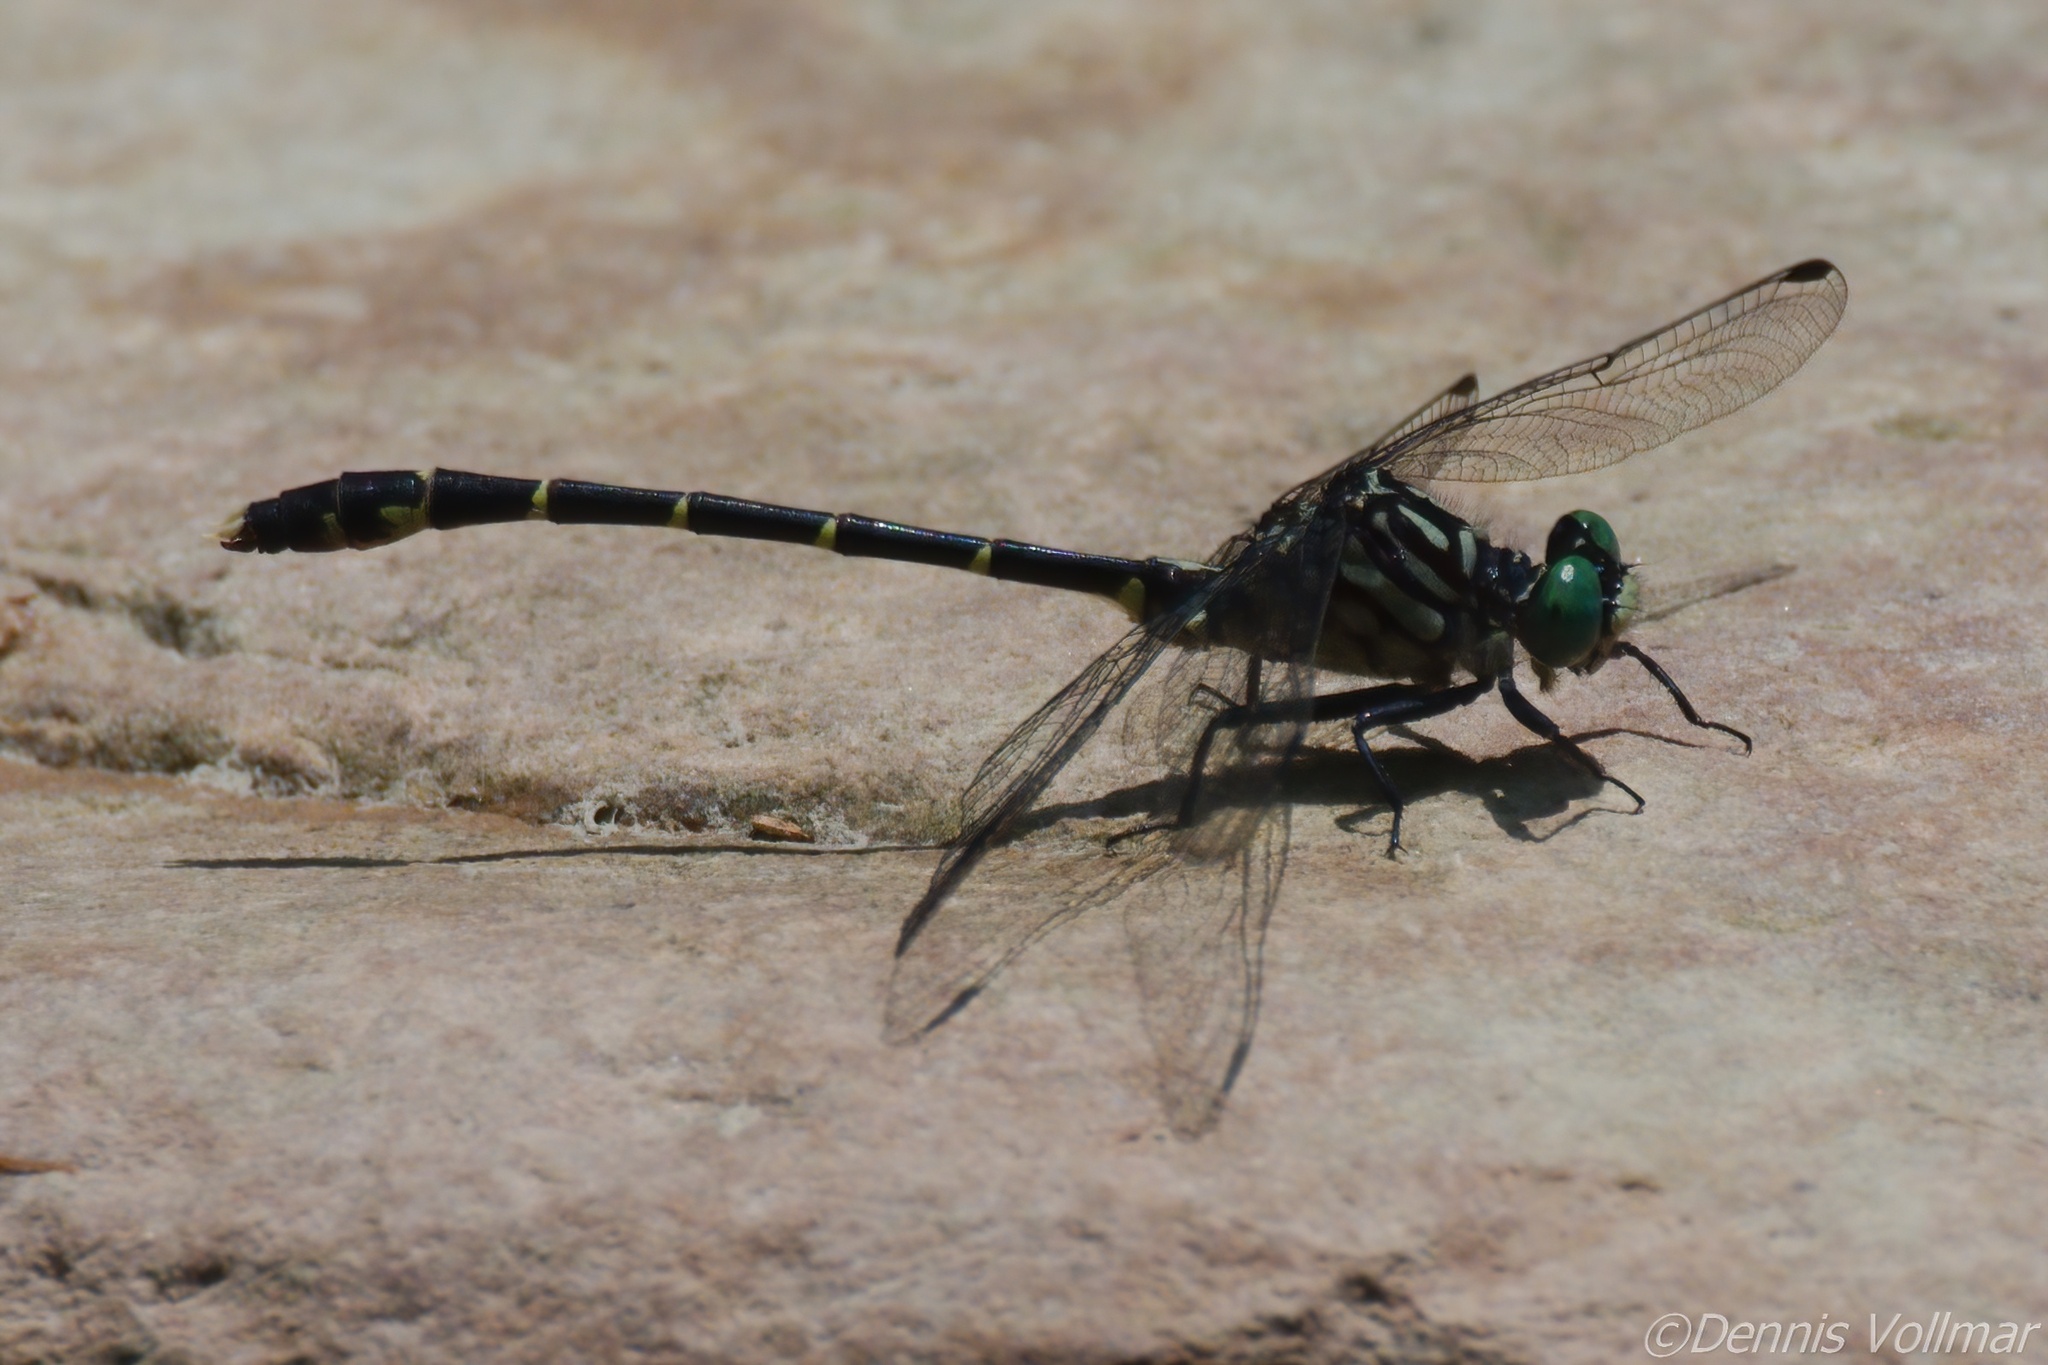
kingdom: Animalia
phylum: Arthropoda
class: Insecta
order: Odonata
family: Gomphidae
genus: Stylogomphus
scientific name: Stylogomphus albistylus
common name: Eastern least clubtail
